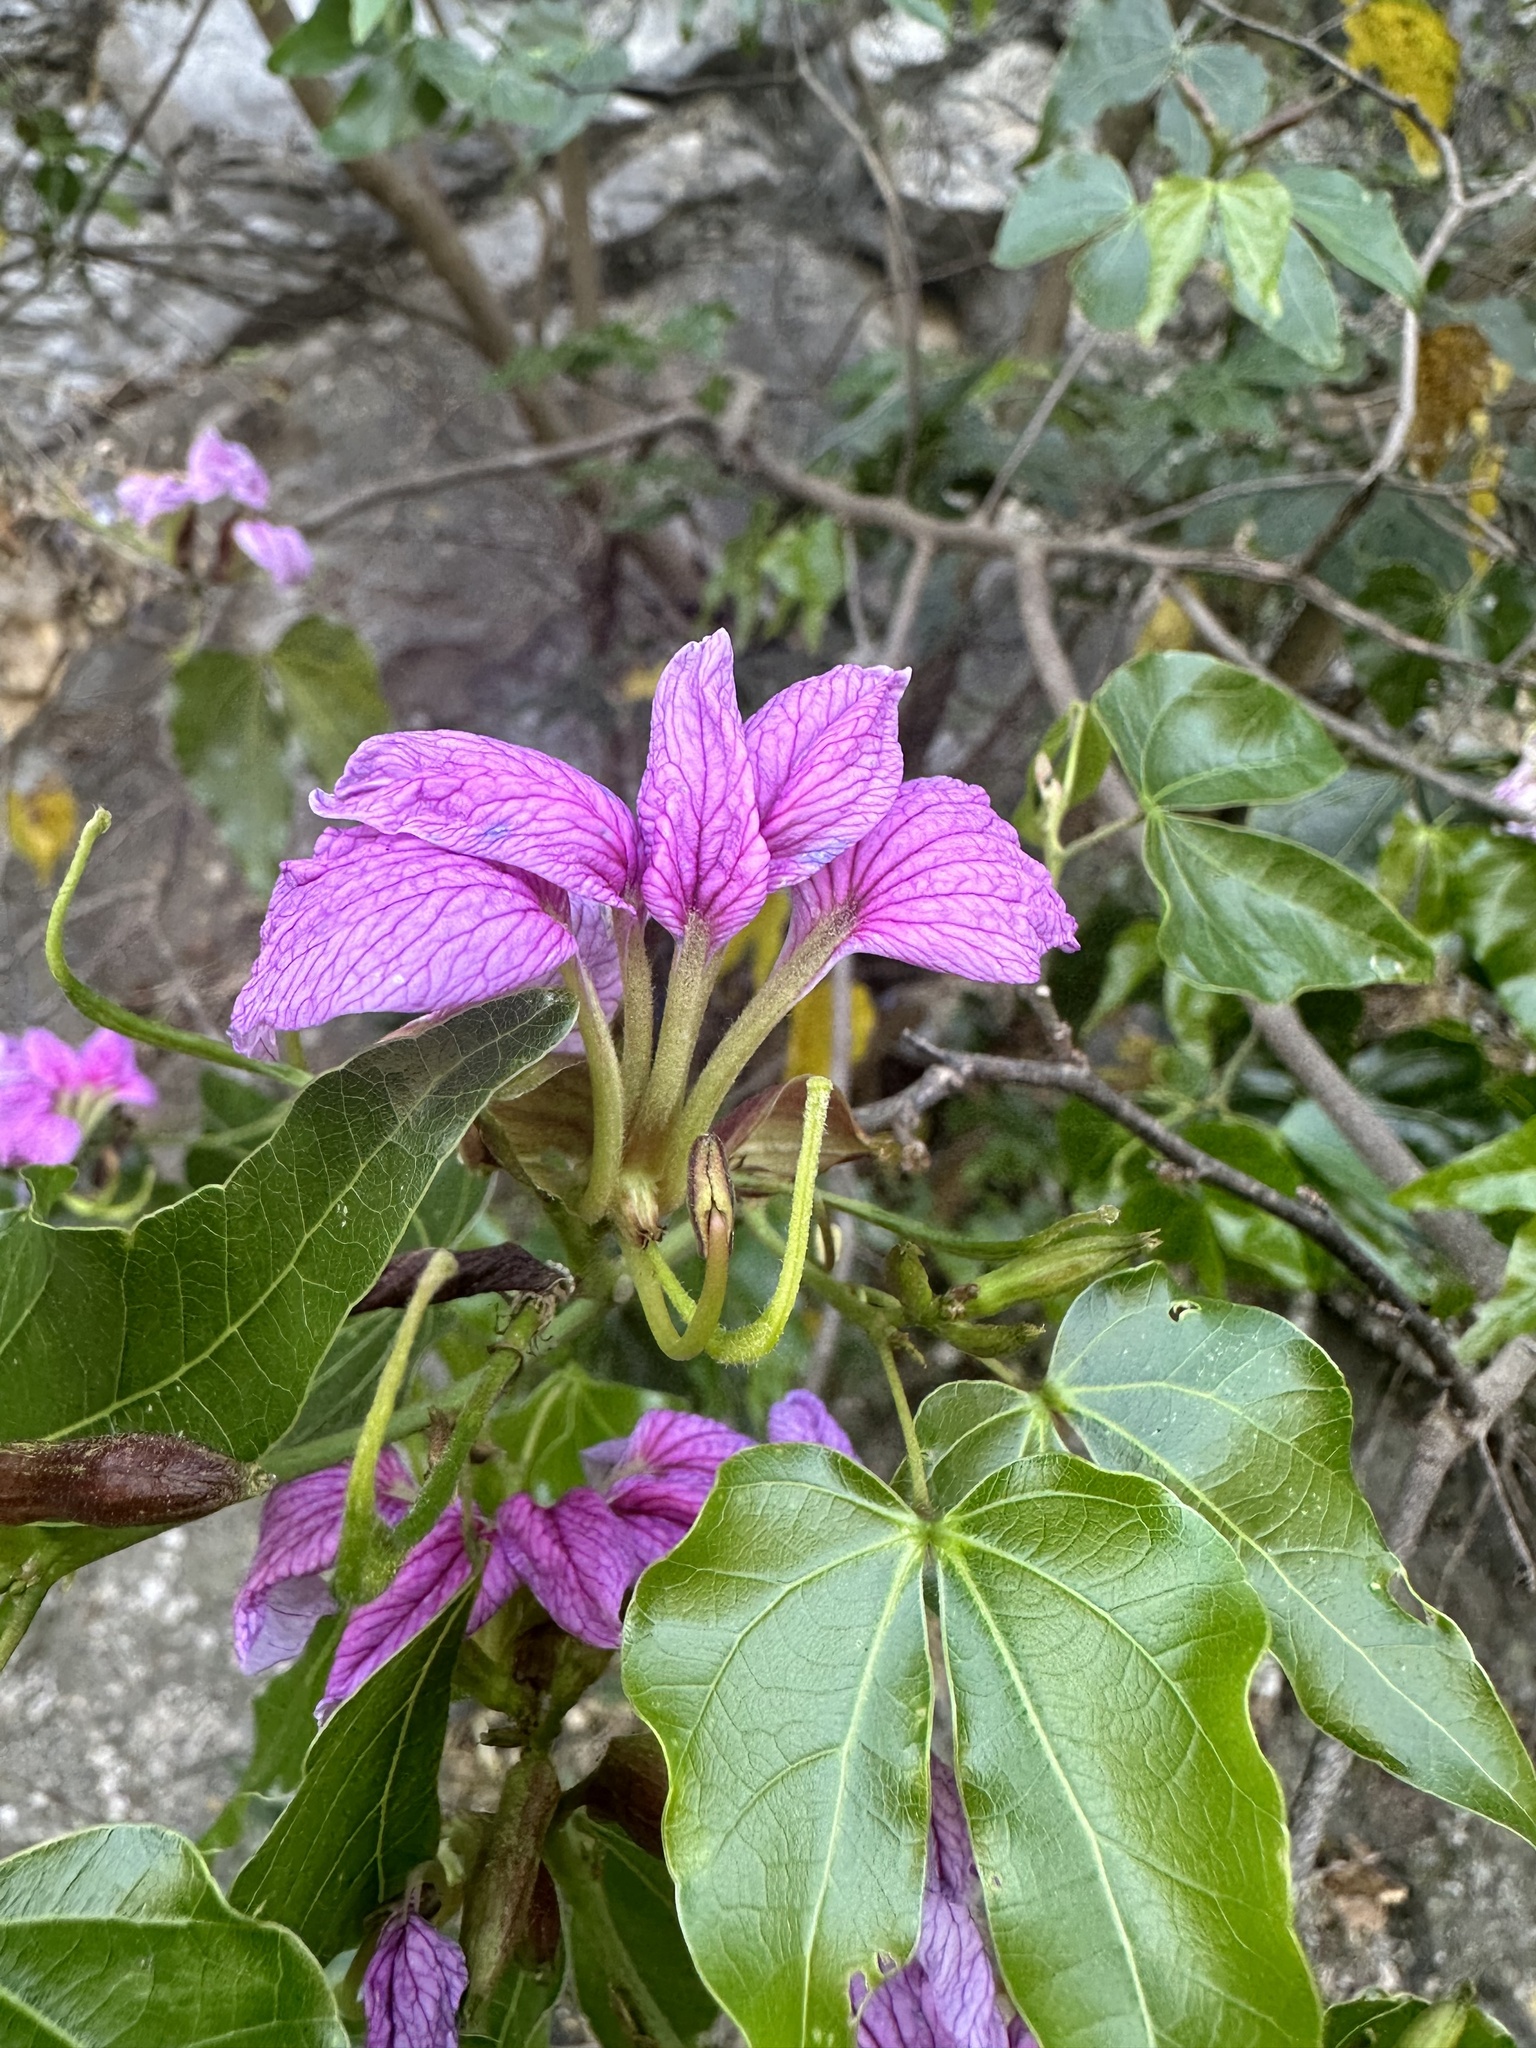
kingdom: Plantae
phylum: Tracheophyta
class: Magnoliopsida
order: Fabales
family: Fabaceae
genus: Bauhinia
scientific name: Bauhinia bartlettii
